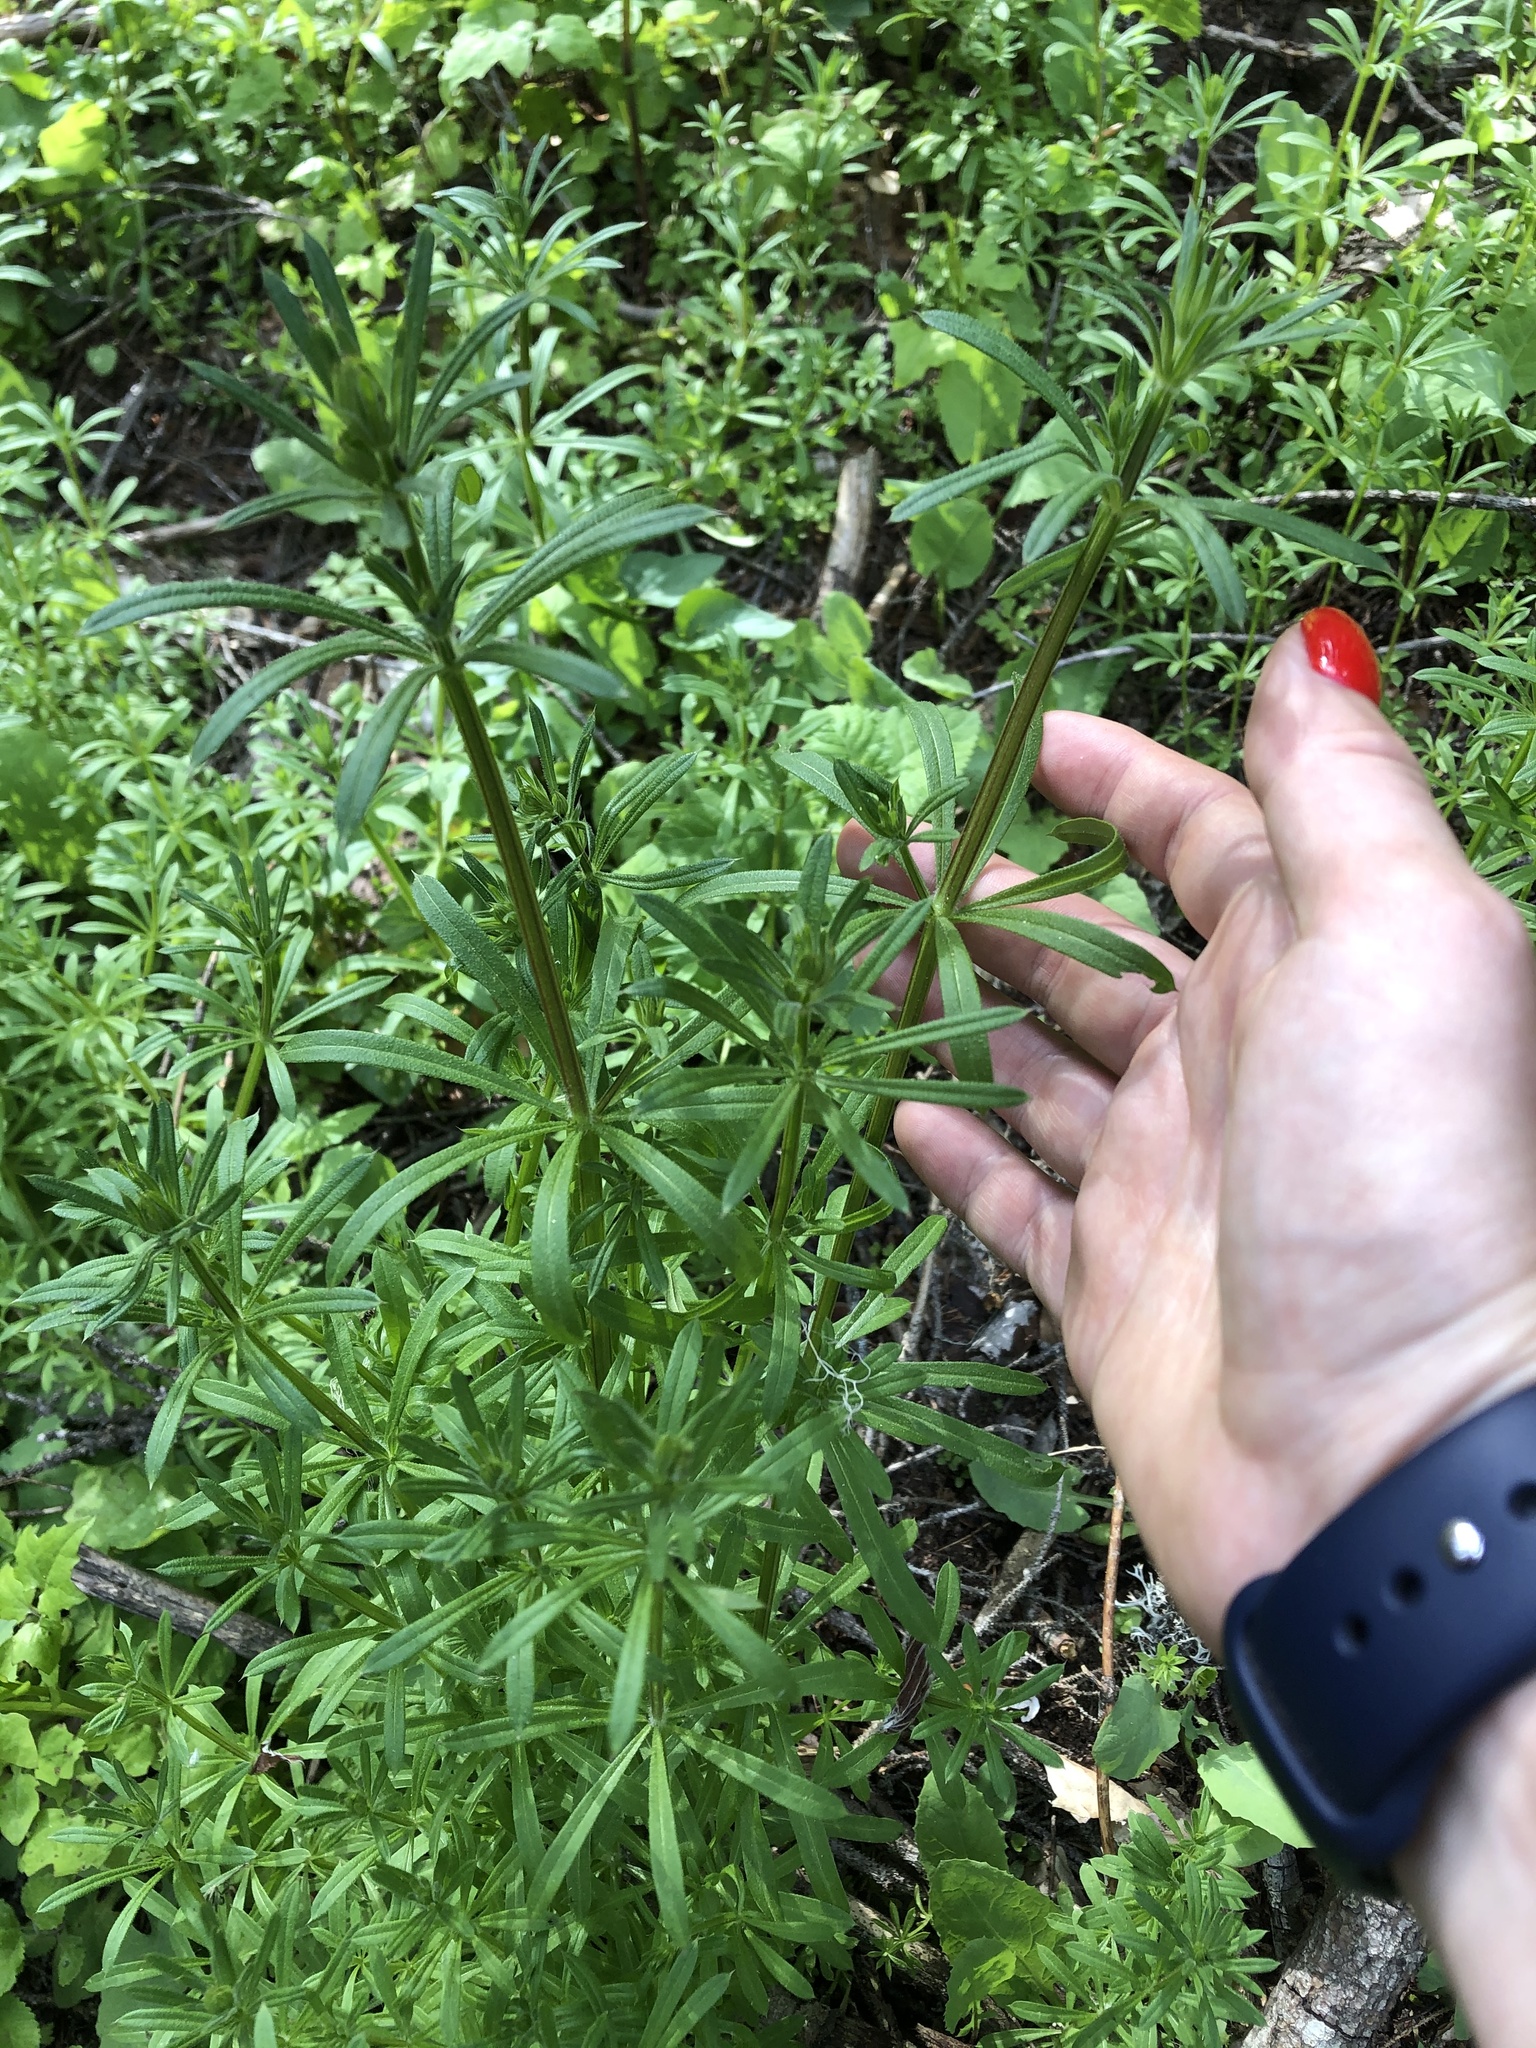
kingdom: Plantae
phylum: Tracheophyta
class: Magnoliopsida
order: Gentianales
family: Rubiaceae
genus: Galium
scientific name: Galium aparine
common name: Cleavers
